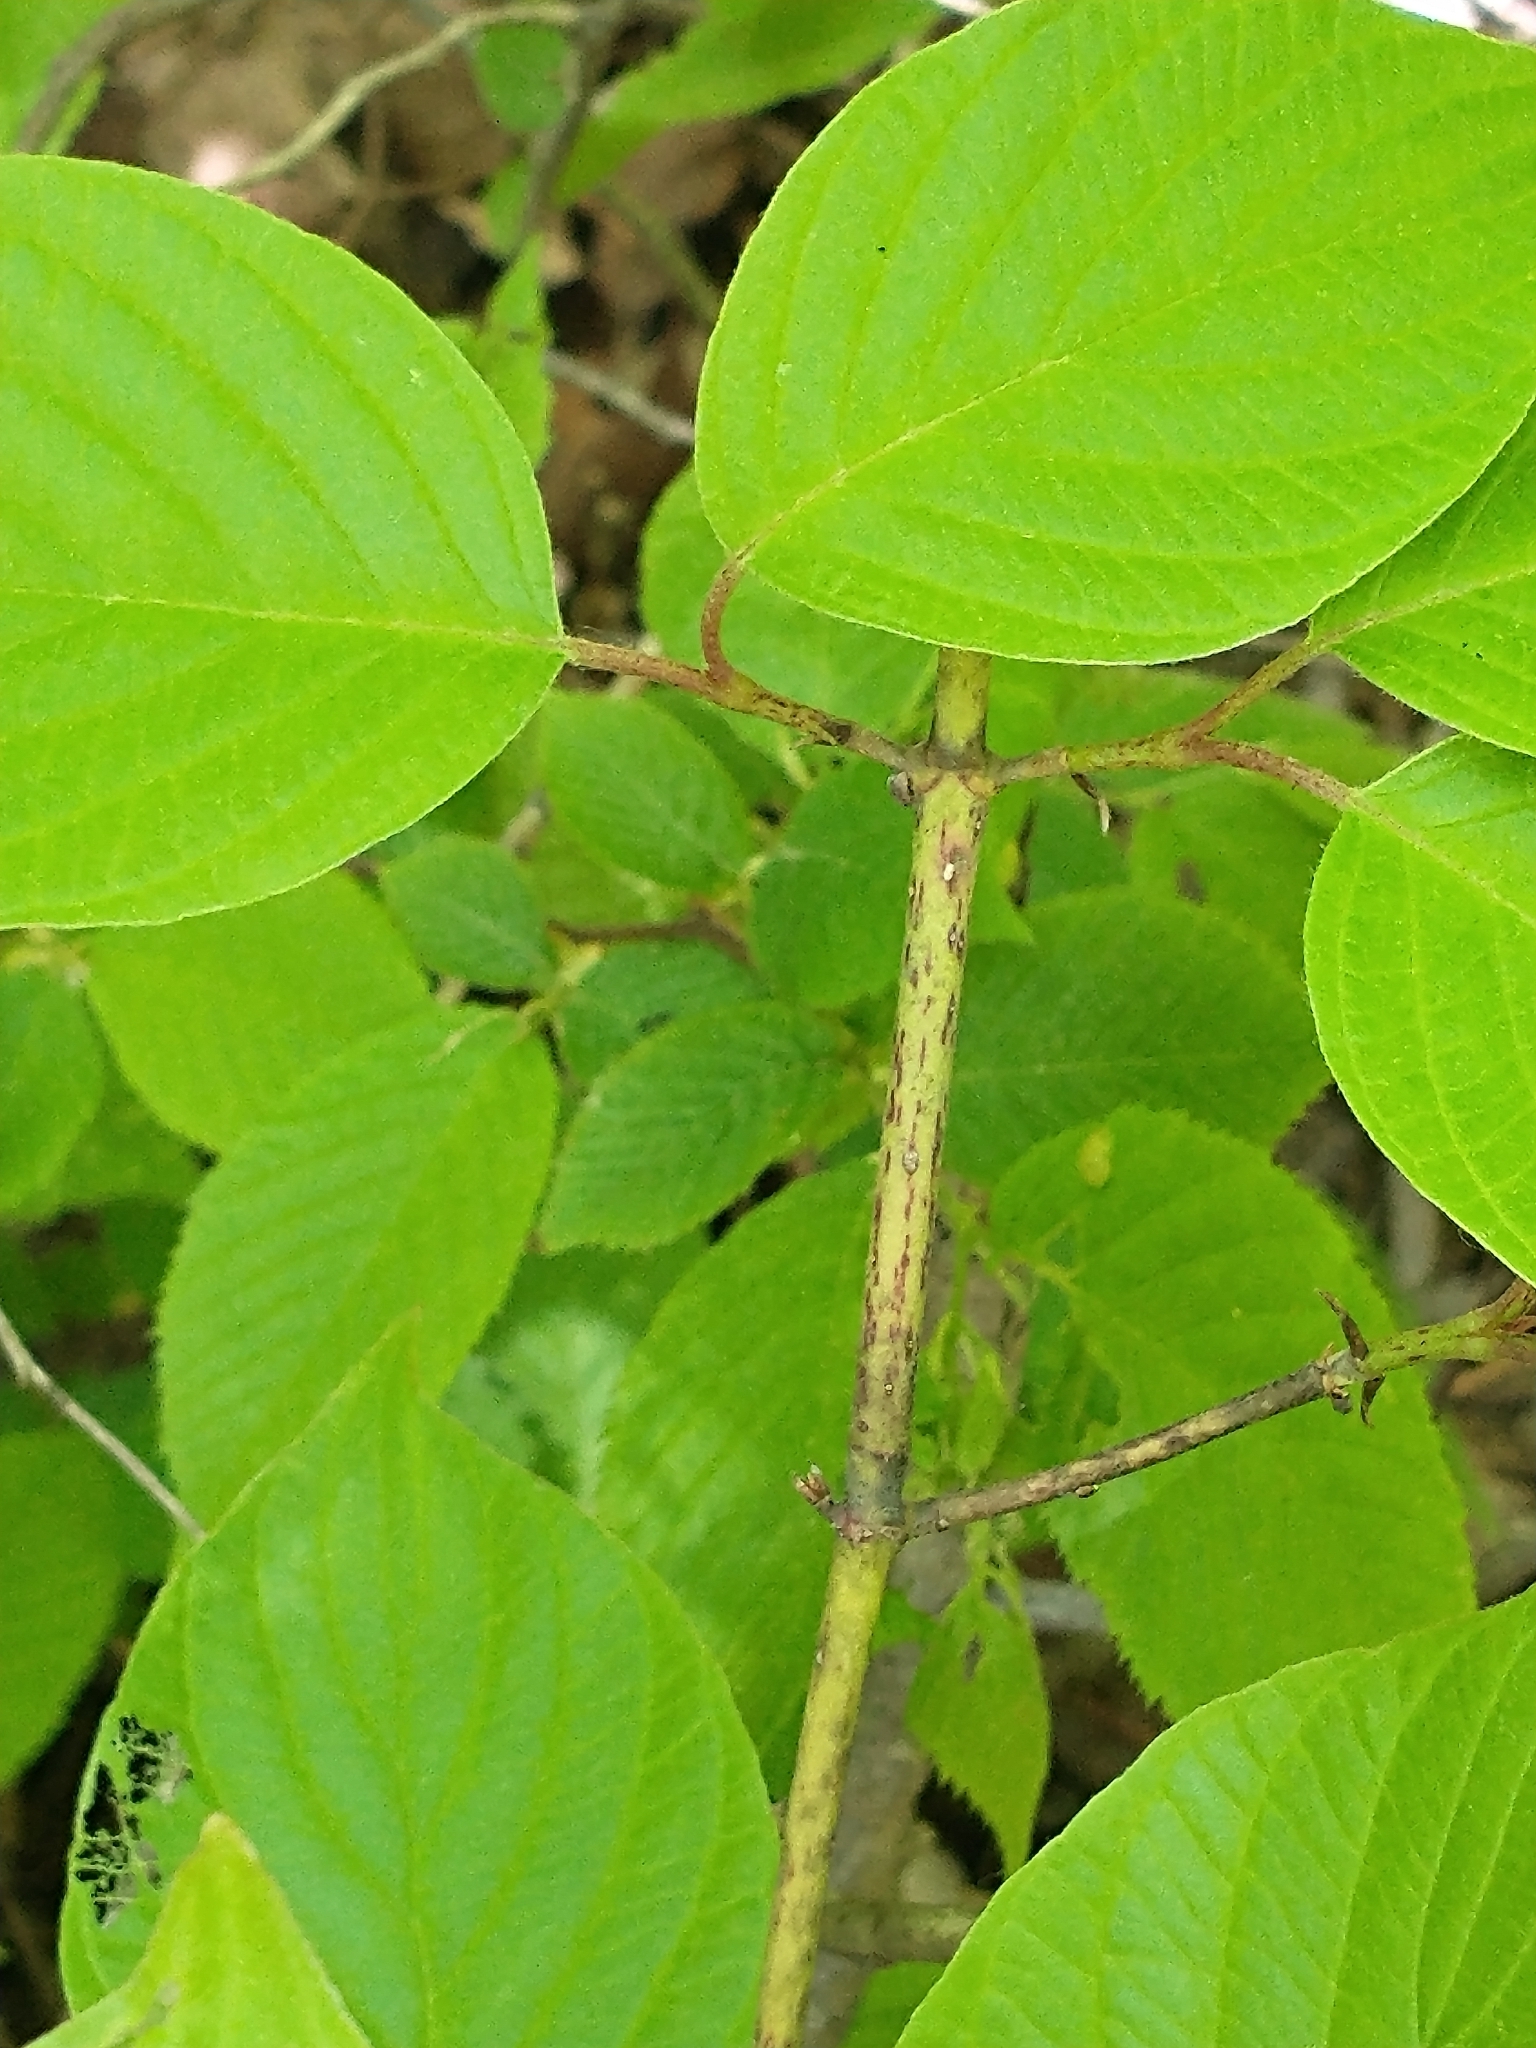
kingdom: Plantae
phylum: Tracheophyta
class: Magnoliopsida
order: Cornales
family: Cornaceae
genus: Cornus
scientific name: Cornus rugosa
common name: Round-leaf dogwood
